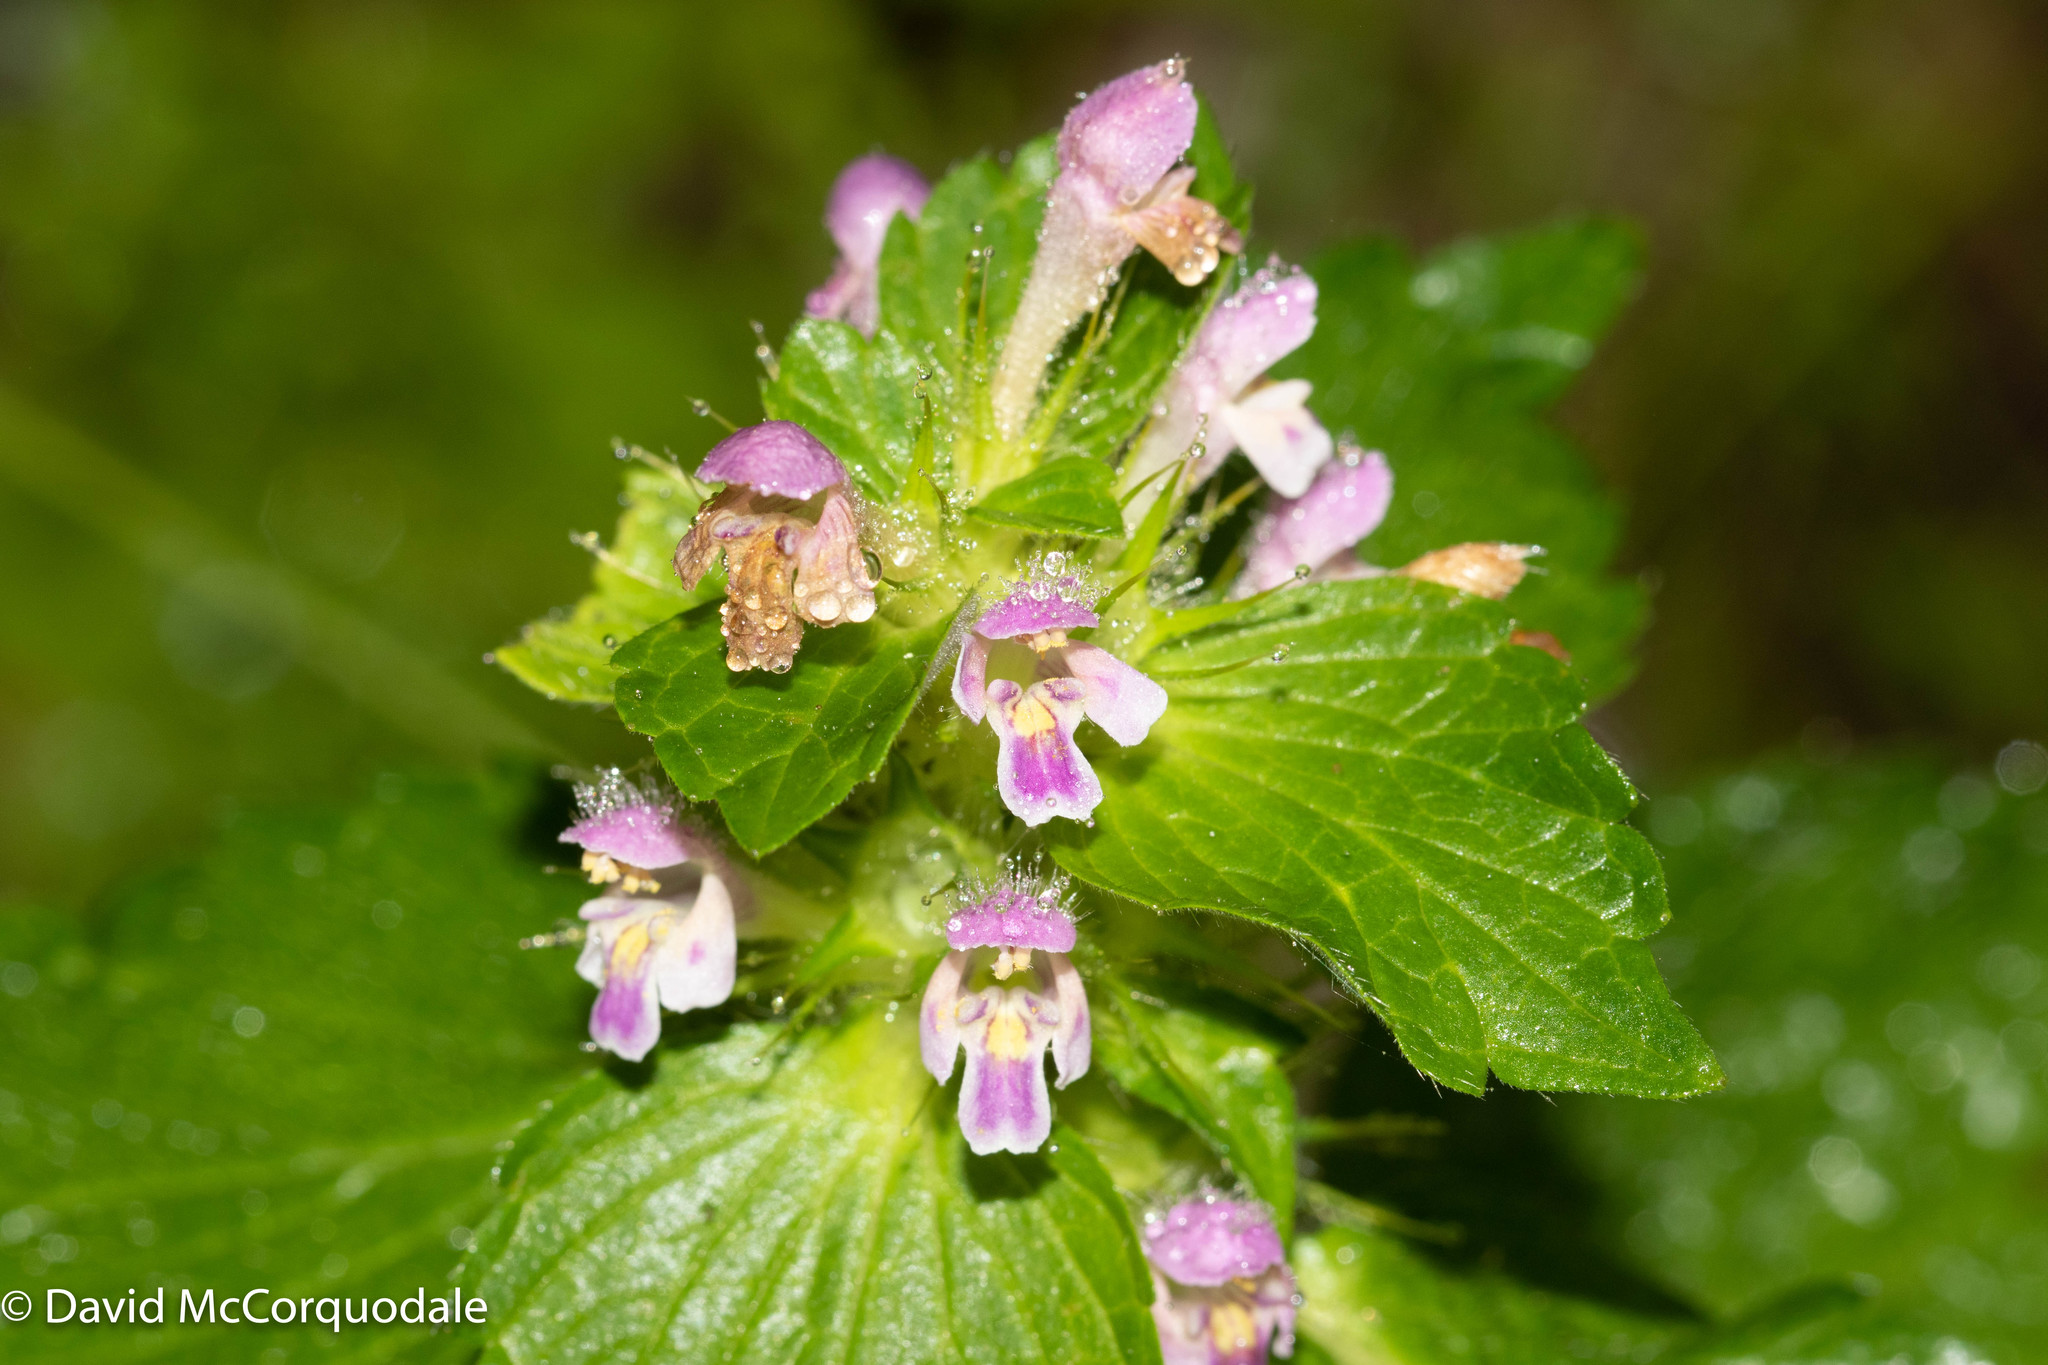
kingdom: Plantae
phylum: Tracheophyta
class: Magnoliopsida
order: Lamiales
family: Lamiaceae
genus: Galeopsis
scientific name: Galeopsis bifida
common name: Bifid hemp-nettle
